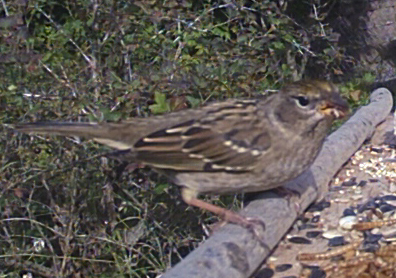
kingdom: Animalia
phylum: Chordata
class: Aves
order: Passeriformes
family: Passerellidae
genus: Zonotrichia
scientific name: Zonotrichia atricapilla
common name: Golden-crowned sparrow
